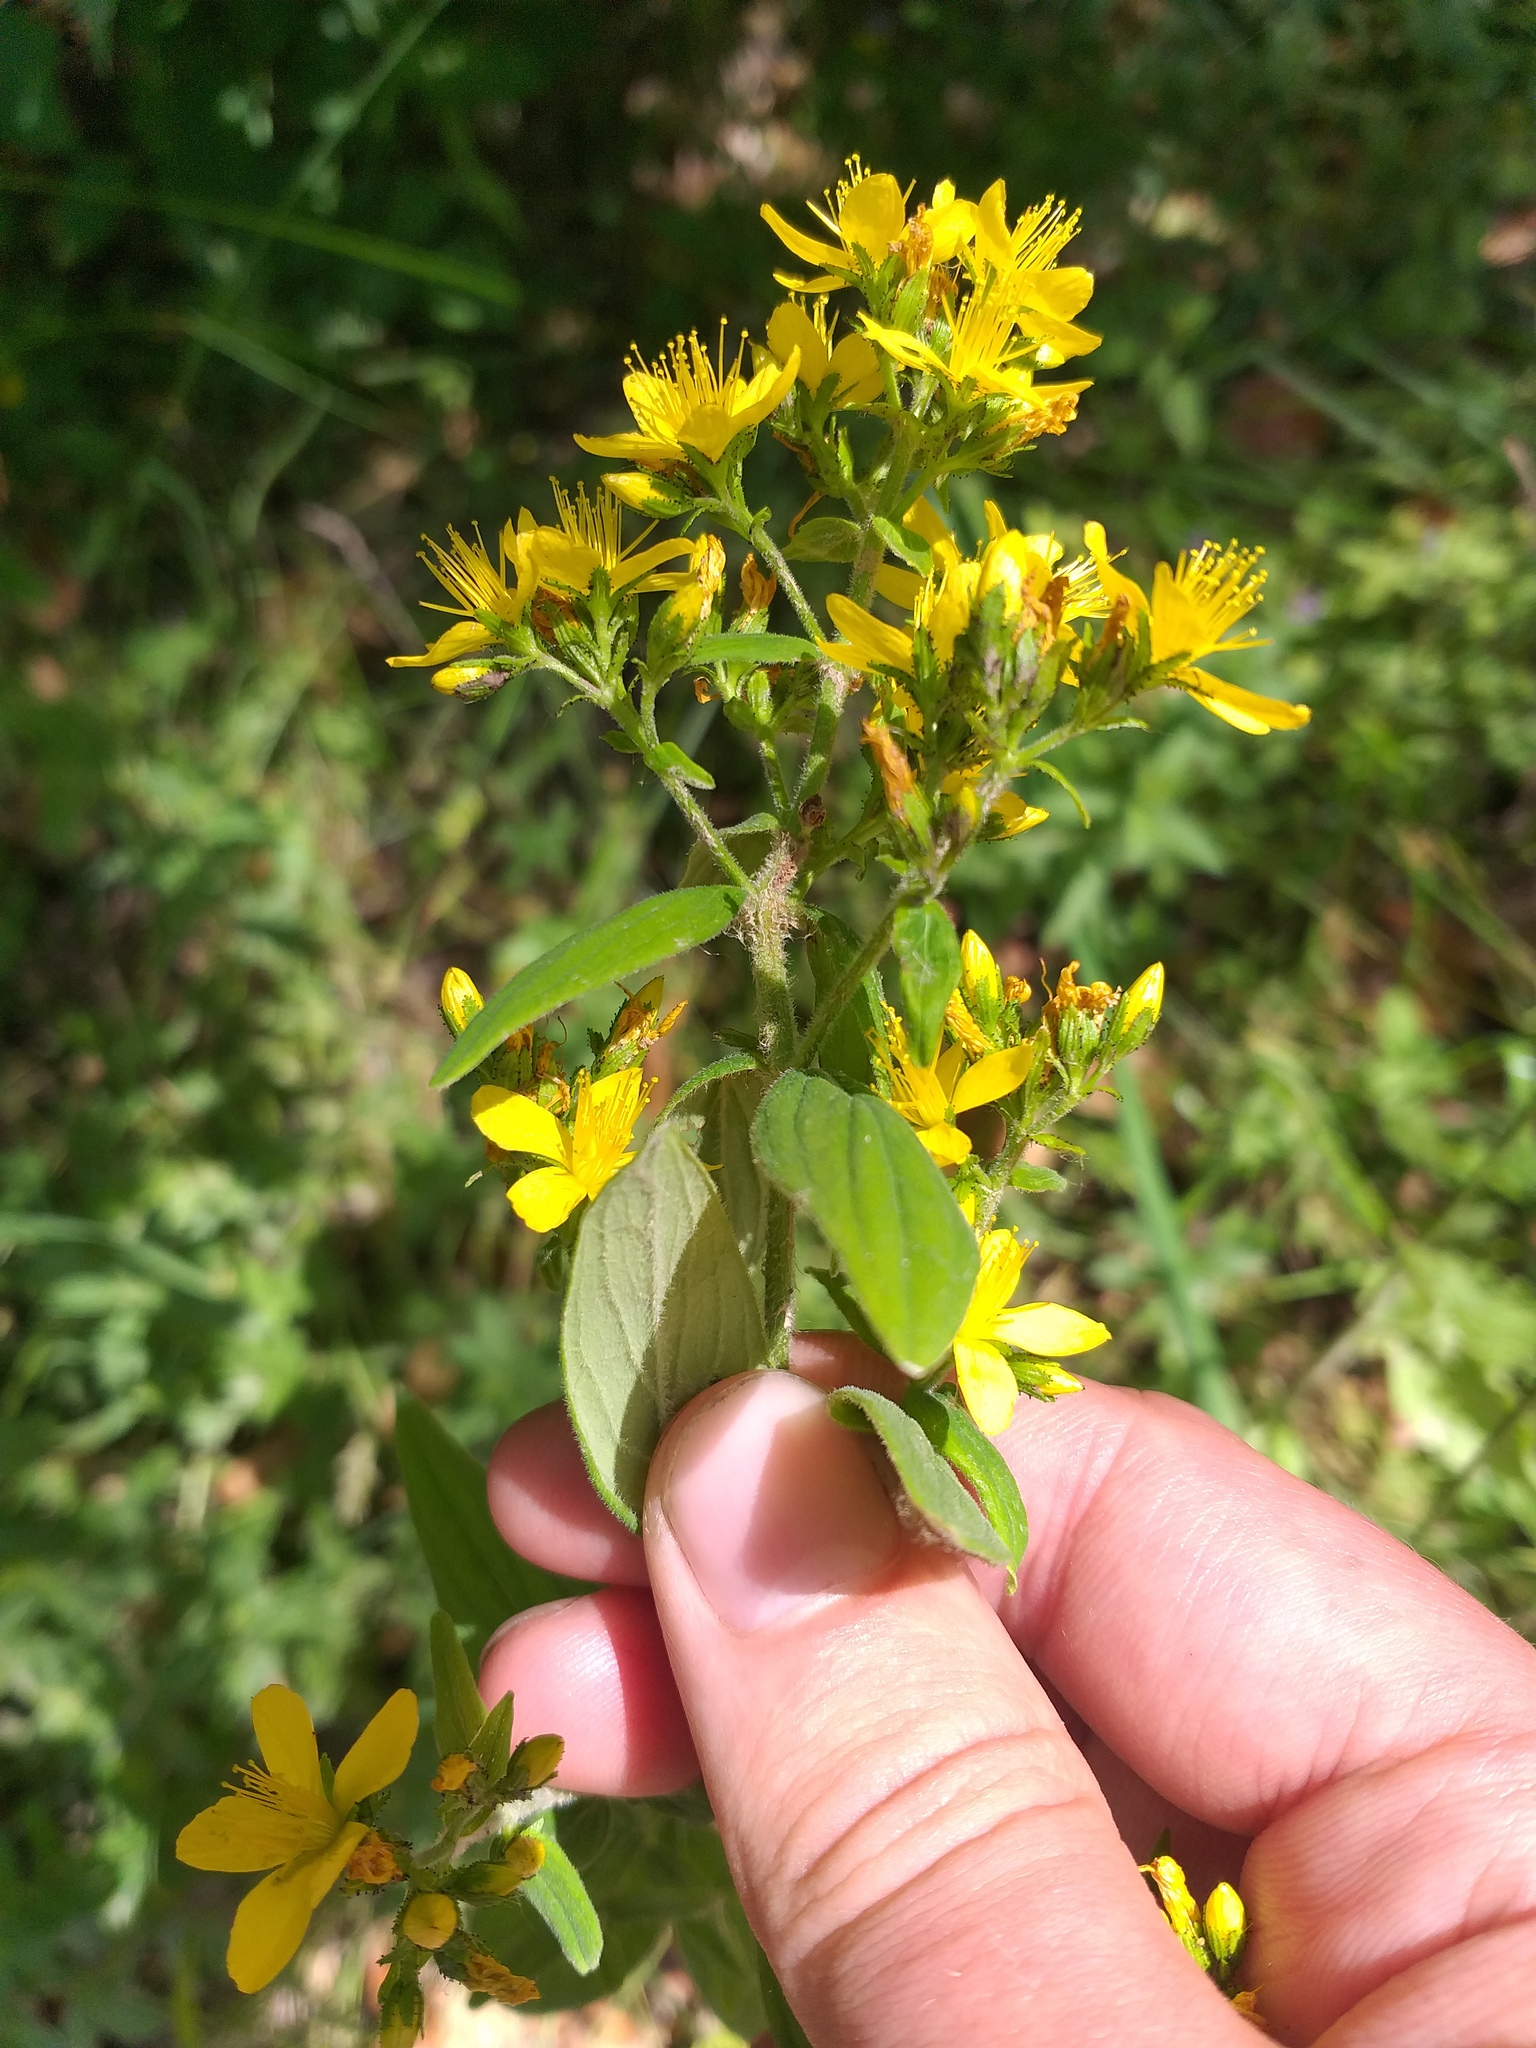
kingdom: Plantae
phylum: Tracheophyta
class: Magnoliopsida
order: Malpighiales
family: Hypericaceae
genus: Hypericum
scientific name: Hypericum hirsutum
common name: Hairy st. john's-wort
